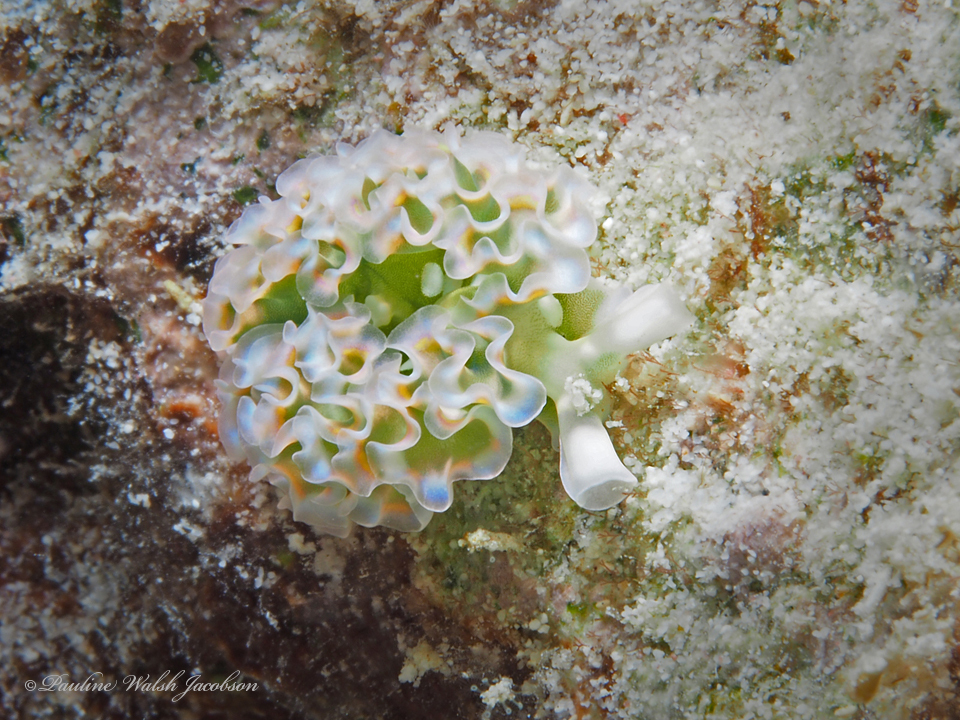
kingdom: Animalia
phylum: Mollusca
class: Gastropoda
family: Plakobranchidae
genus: Elysia
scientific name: Elysia crispata
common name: Lettuce slug
